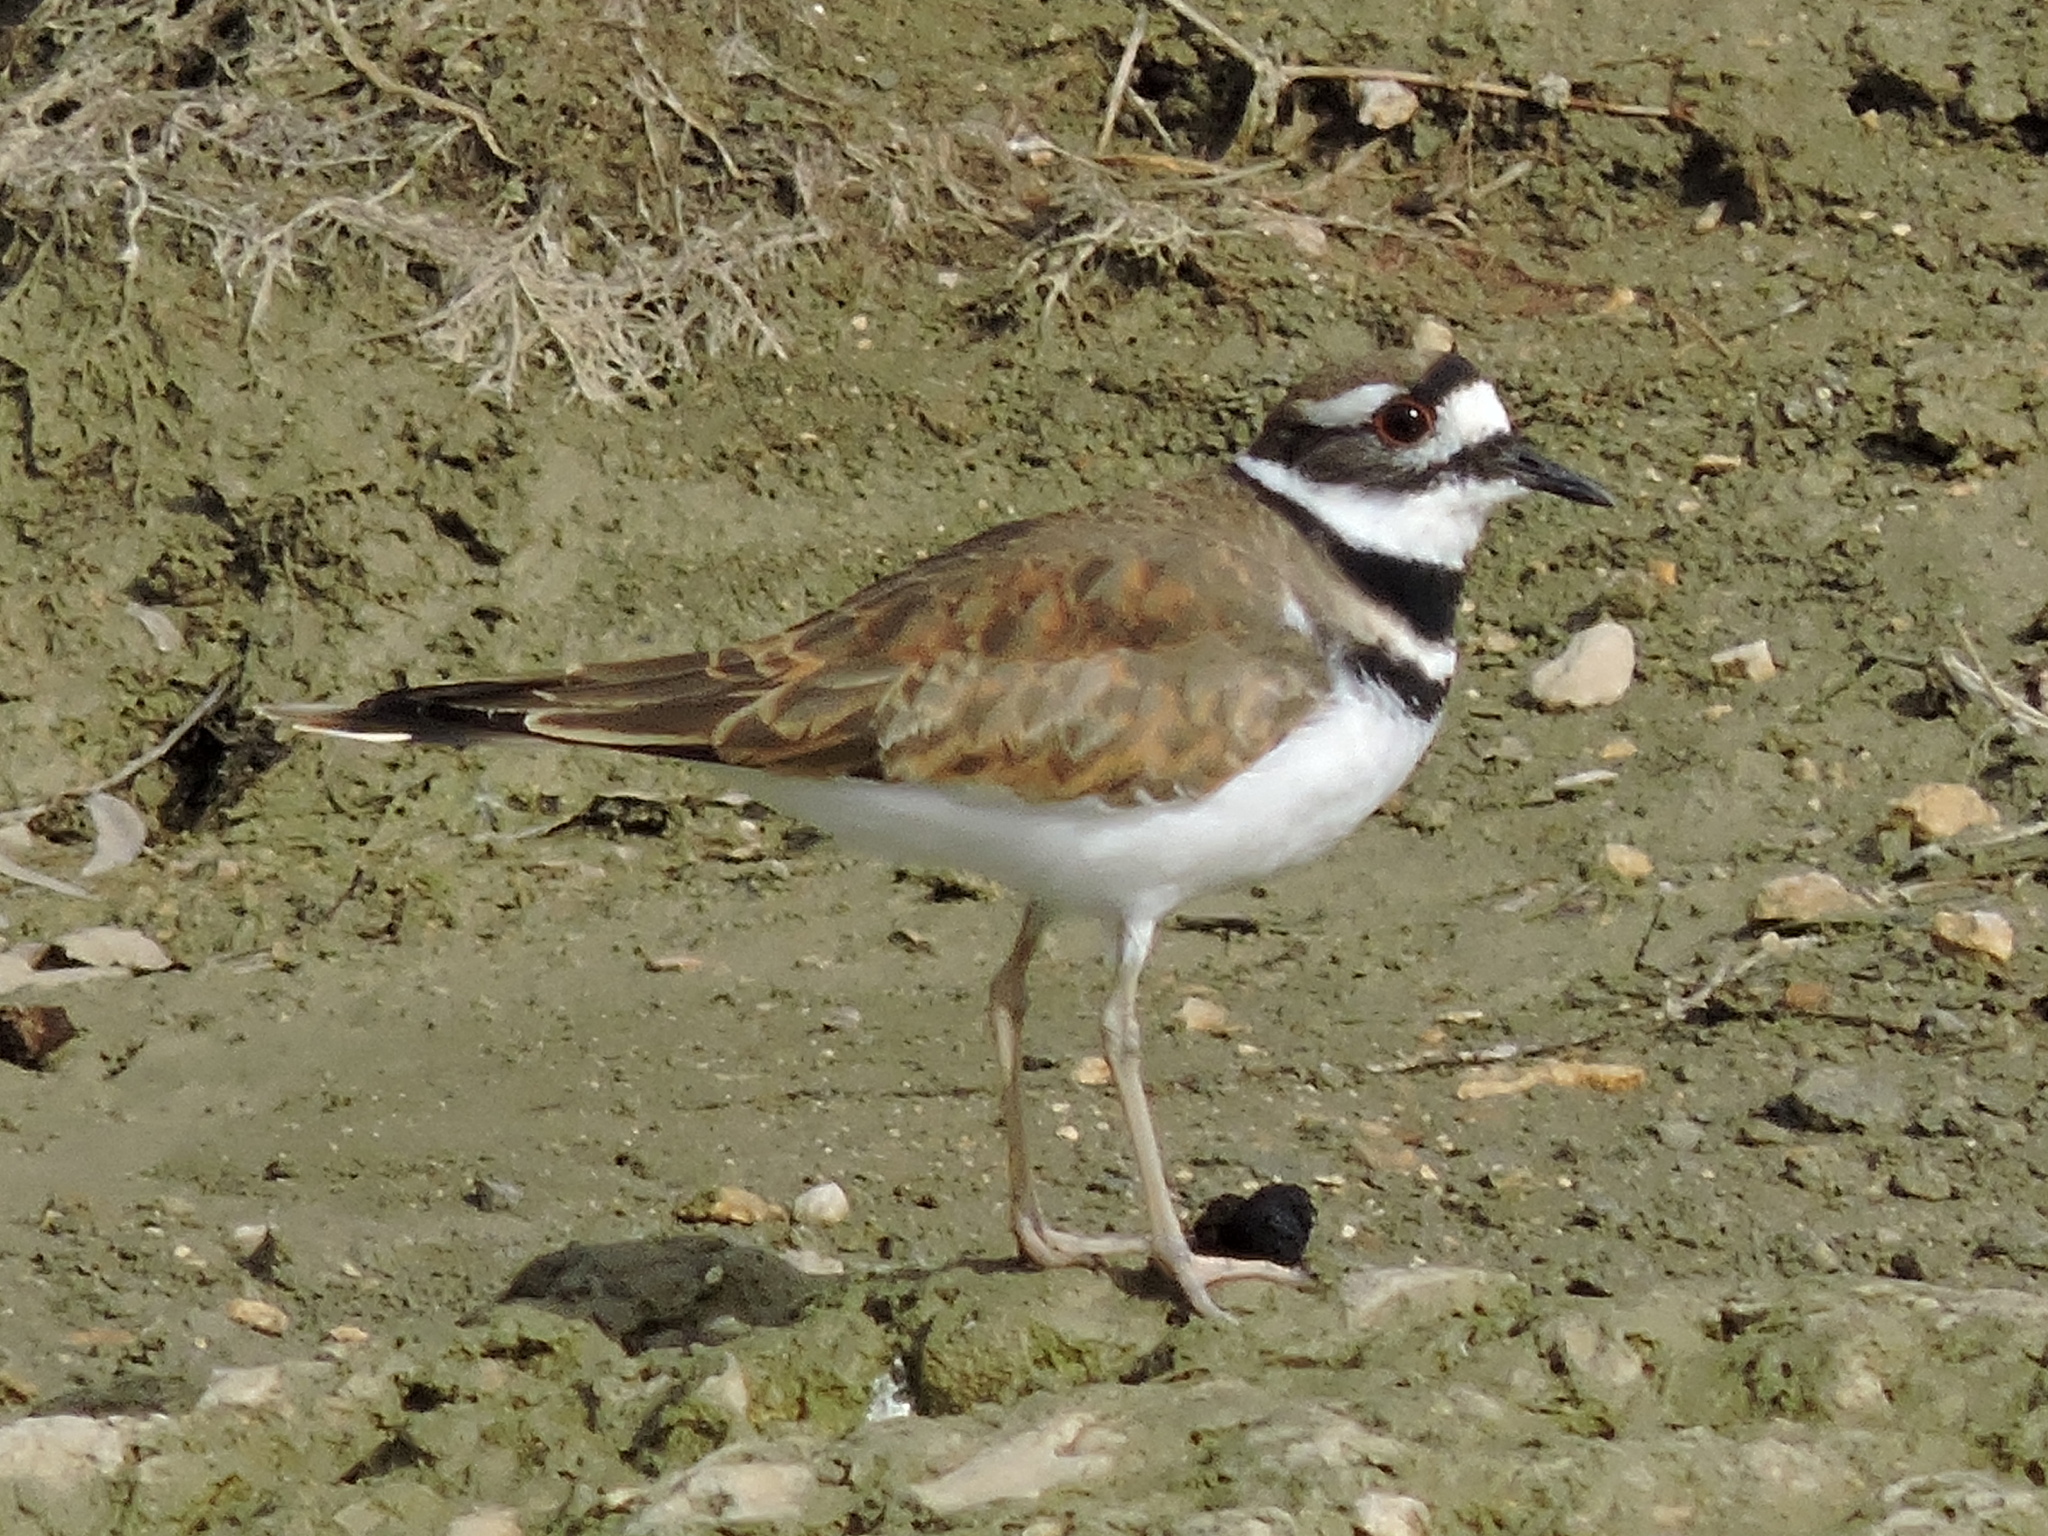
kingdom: Animalia
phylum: Chordata
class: Aves
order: Charadriiformes
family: Charadriidae
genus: Charadrius
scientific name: Charadrius vociferus
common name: Killdeer
